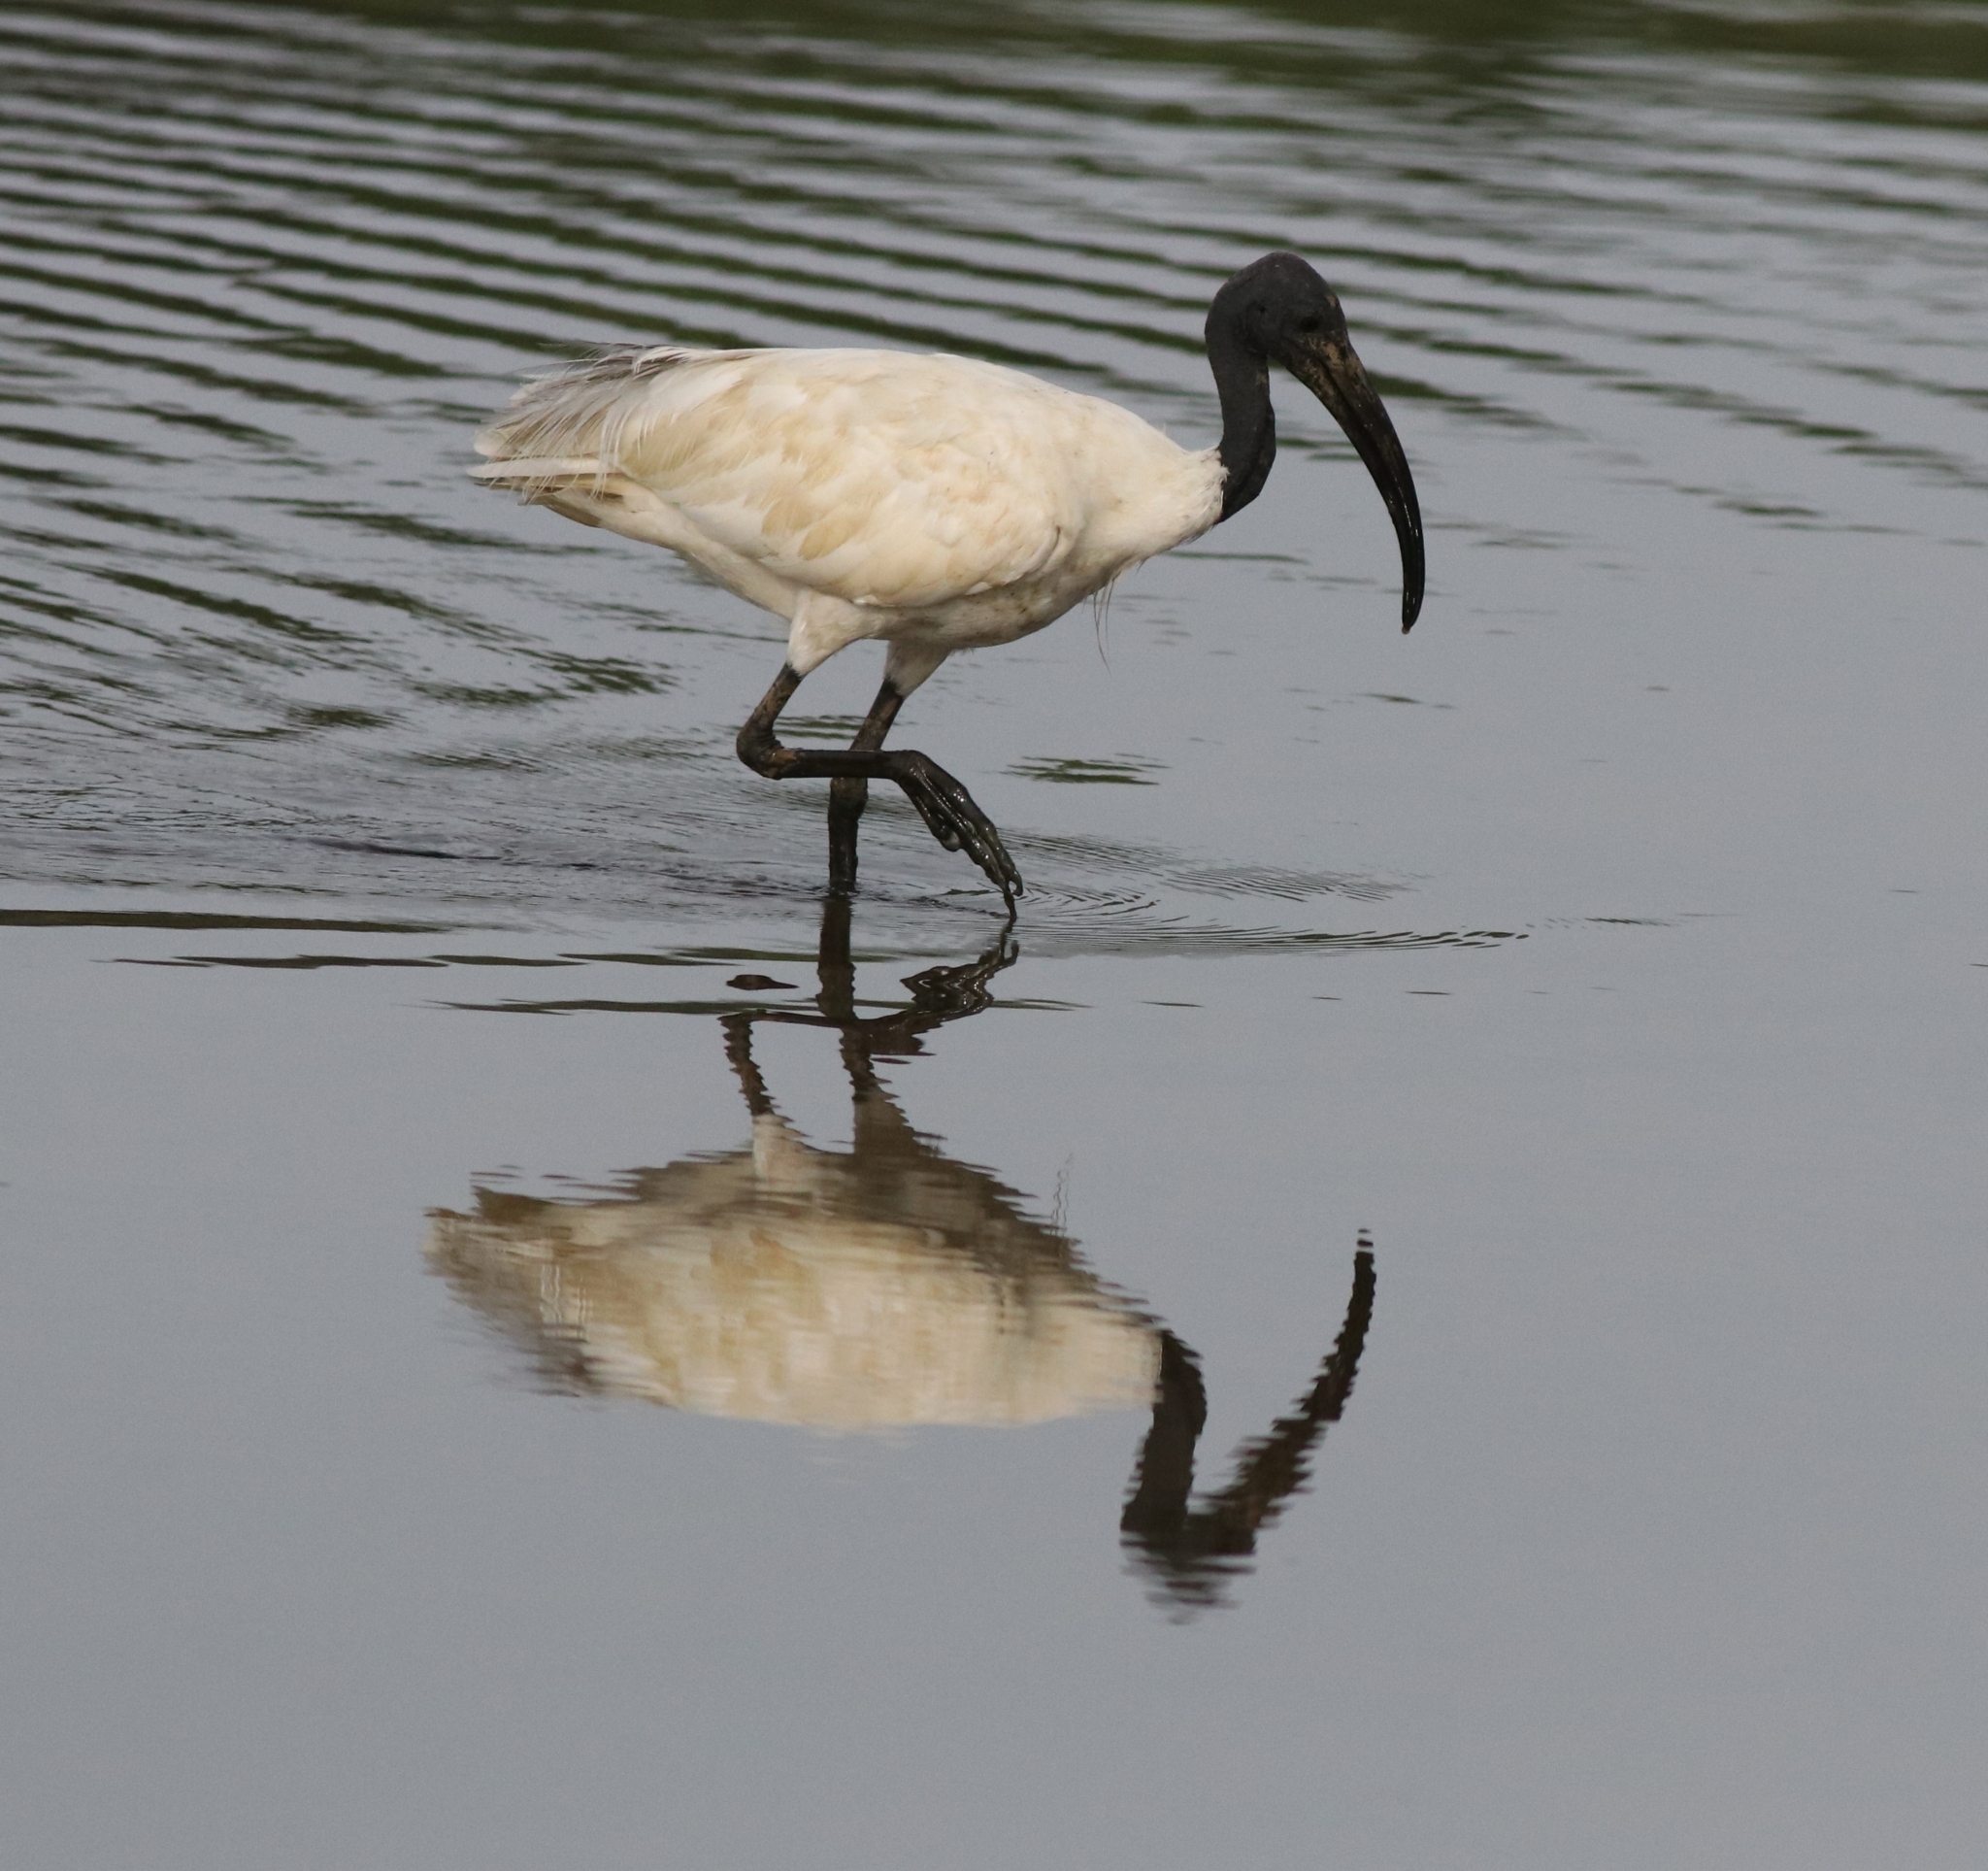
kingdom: Animalia
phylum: Chordata
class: Aves
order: Pelecaniformes
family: Threskiornithidae
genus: Threskiornis
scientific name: Threskiornis melanocephalus
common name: Black-headed ibis
